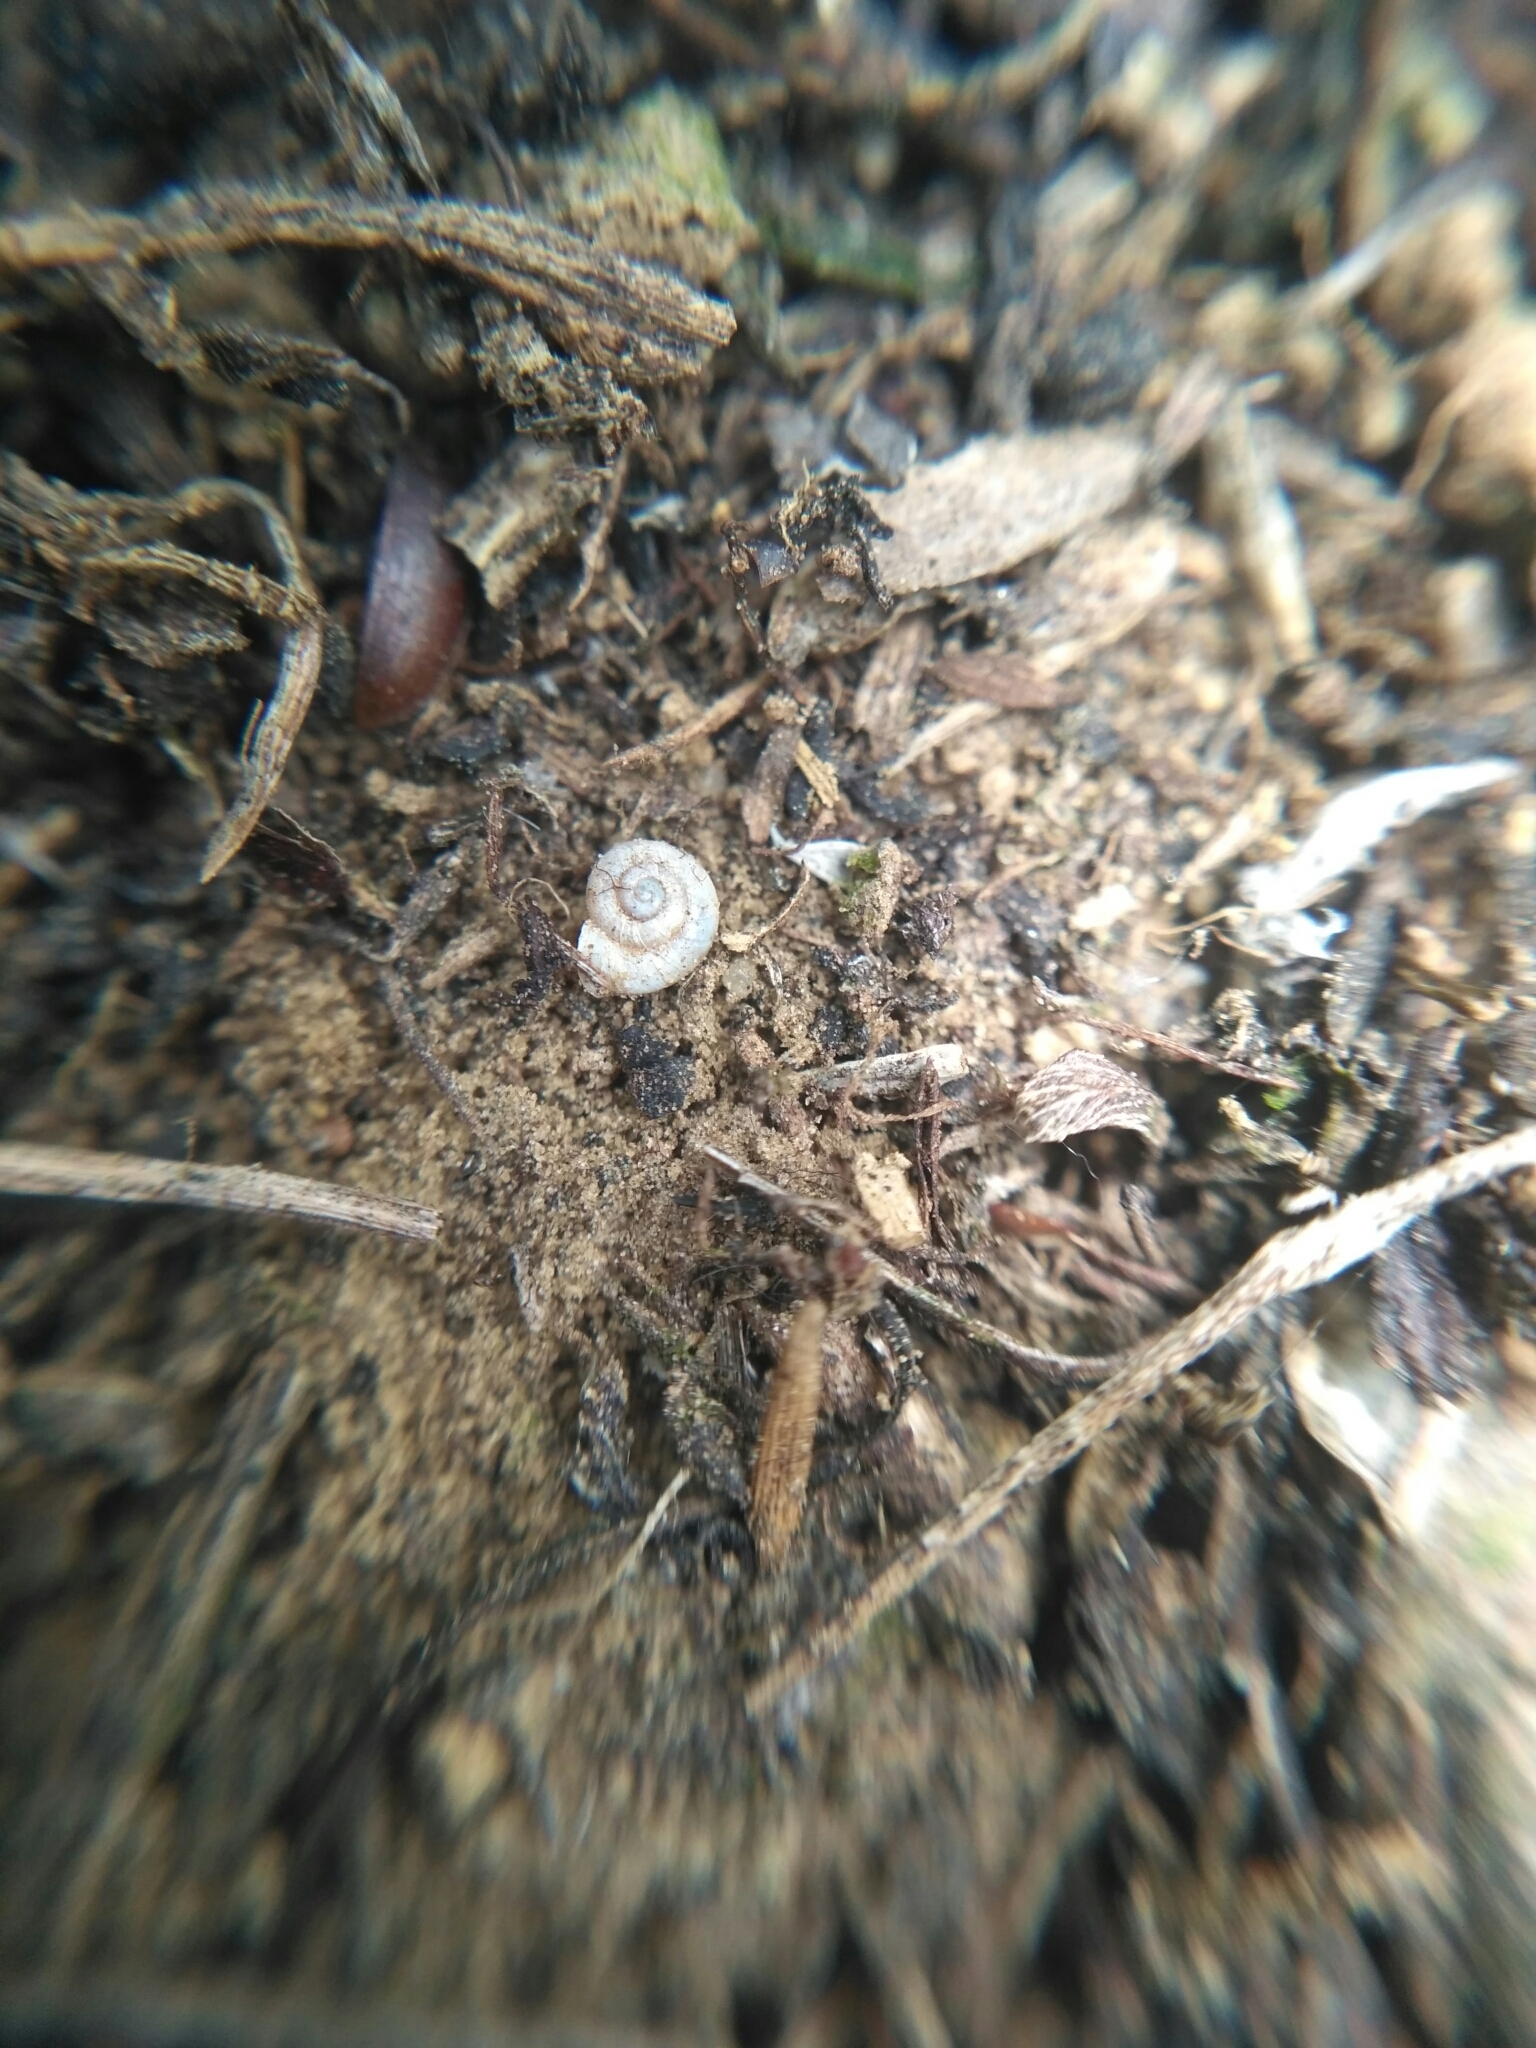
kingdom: Animalia
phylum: Mollusca
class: Gastropoda
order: Stylommatophora
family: Valloniidae
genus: Vallonia
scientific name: Vallonia pulchella
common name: Smooth grass snail
